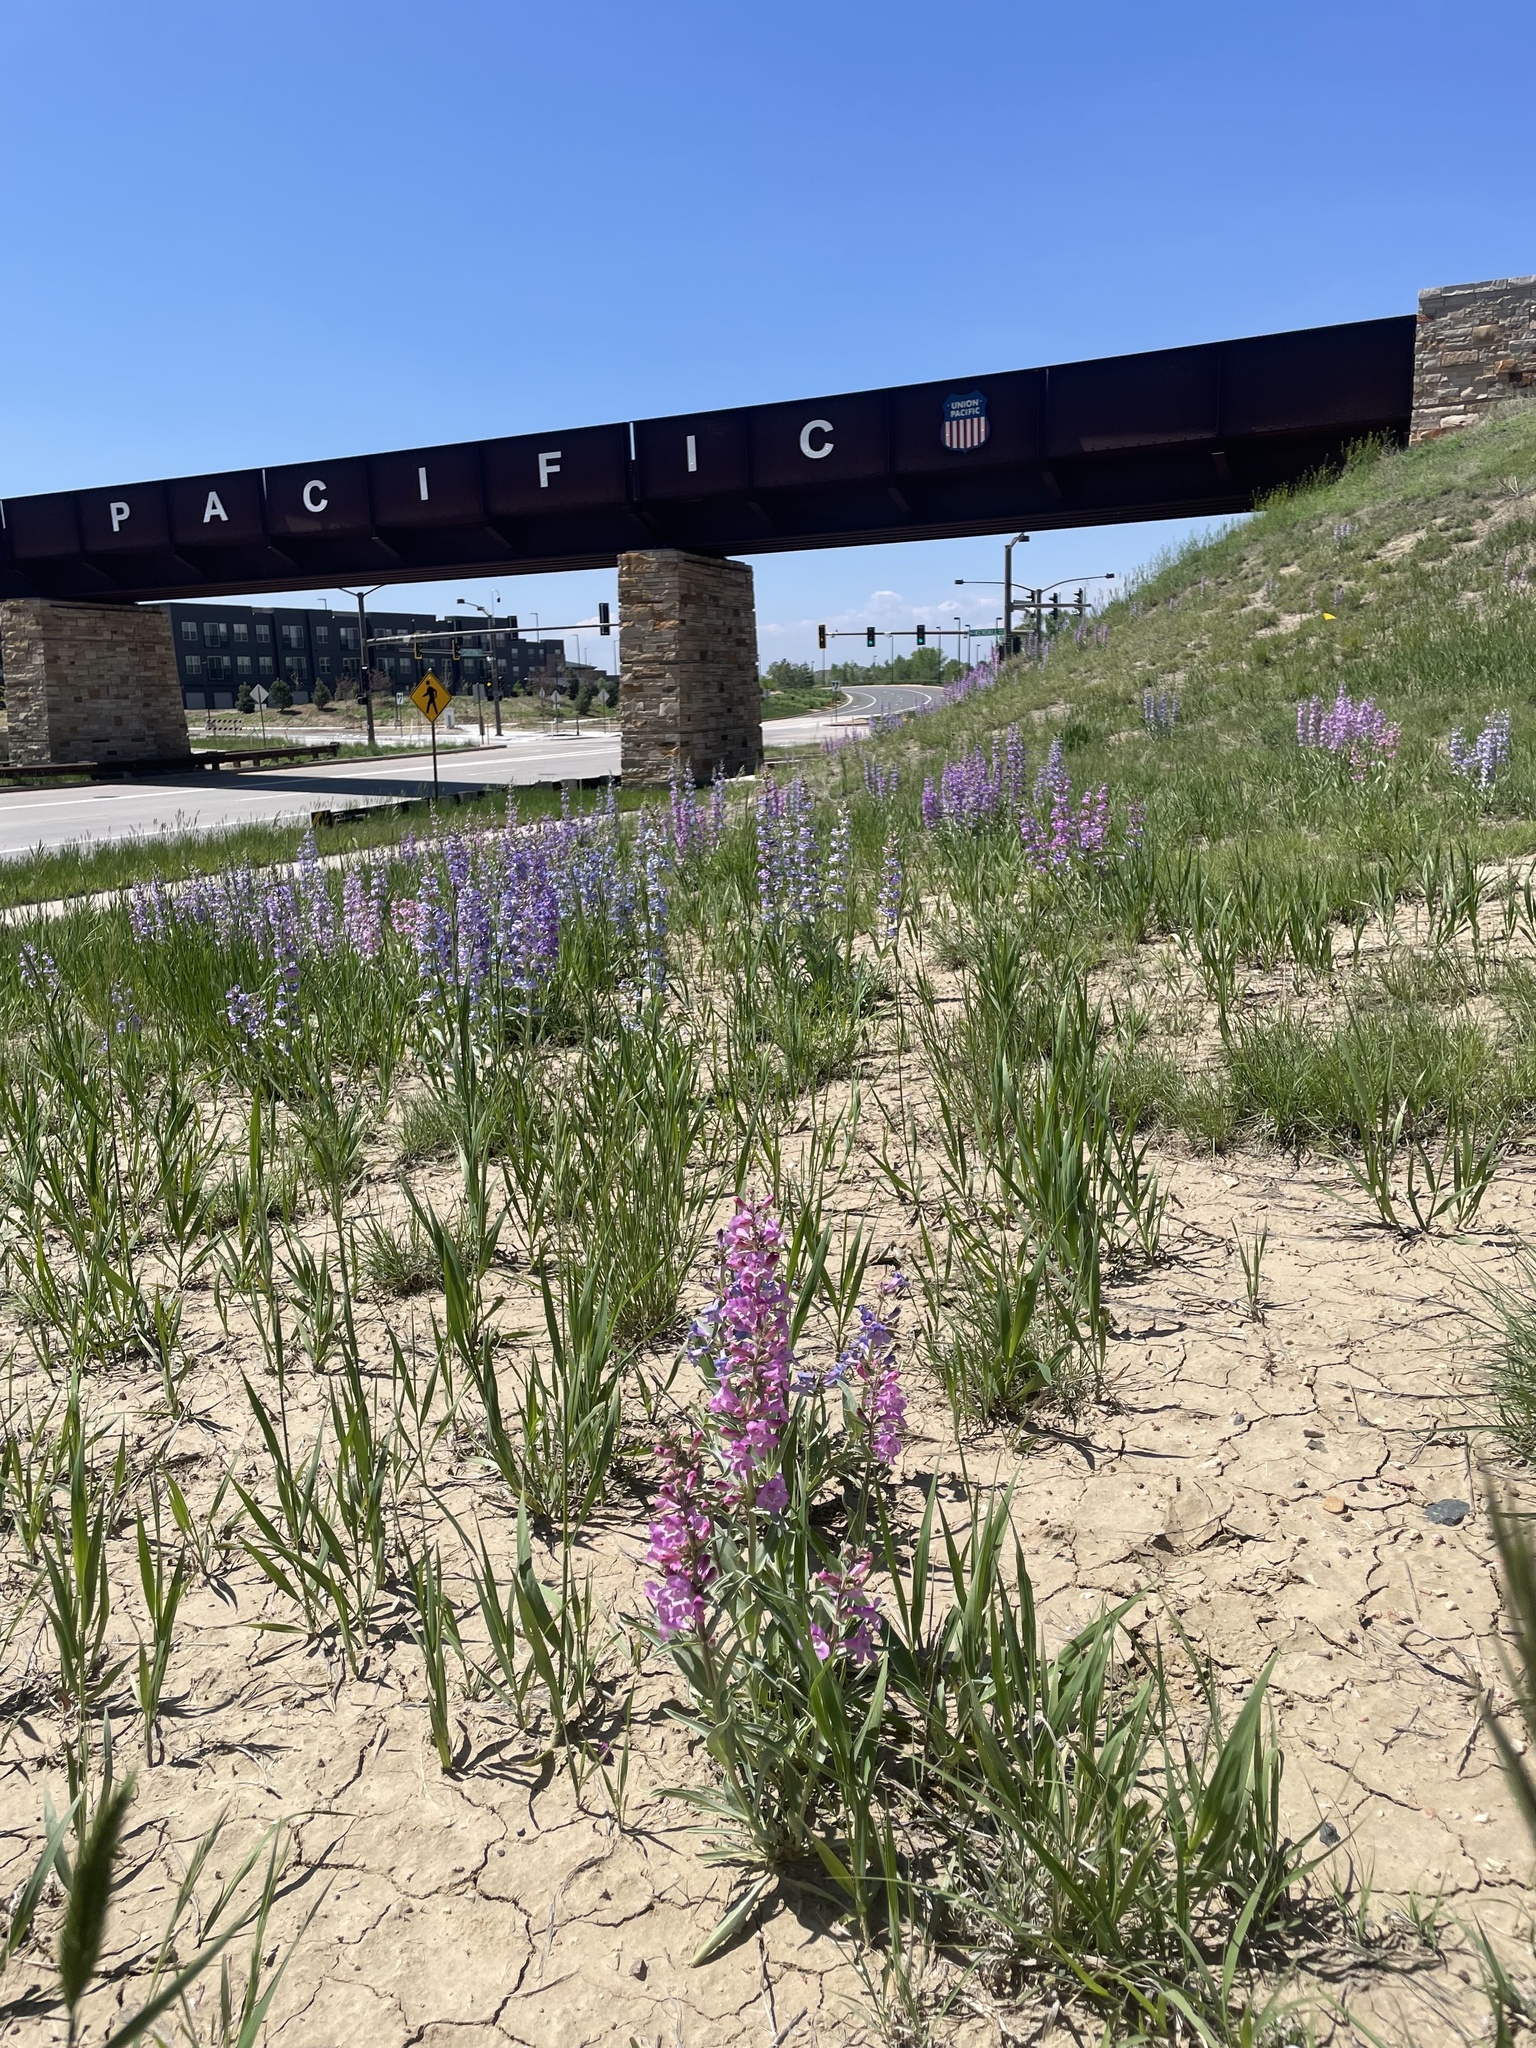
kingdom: Plantae
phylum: Tracheophyta
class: Magnoliopsida
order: Lamiales
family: Plantaginaceae
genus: Penstemon
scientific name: Penstemon angustifolius
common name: Narrow beardtongue
